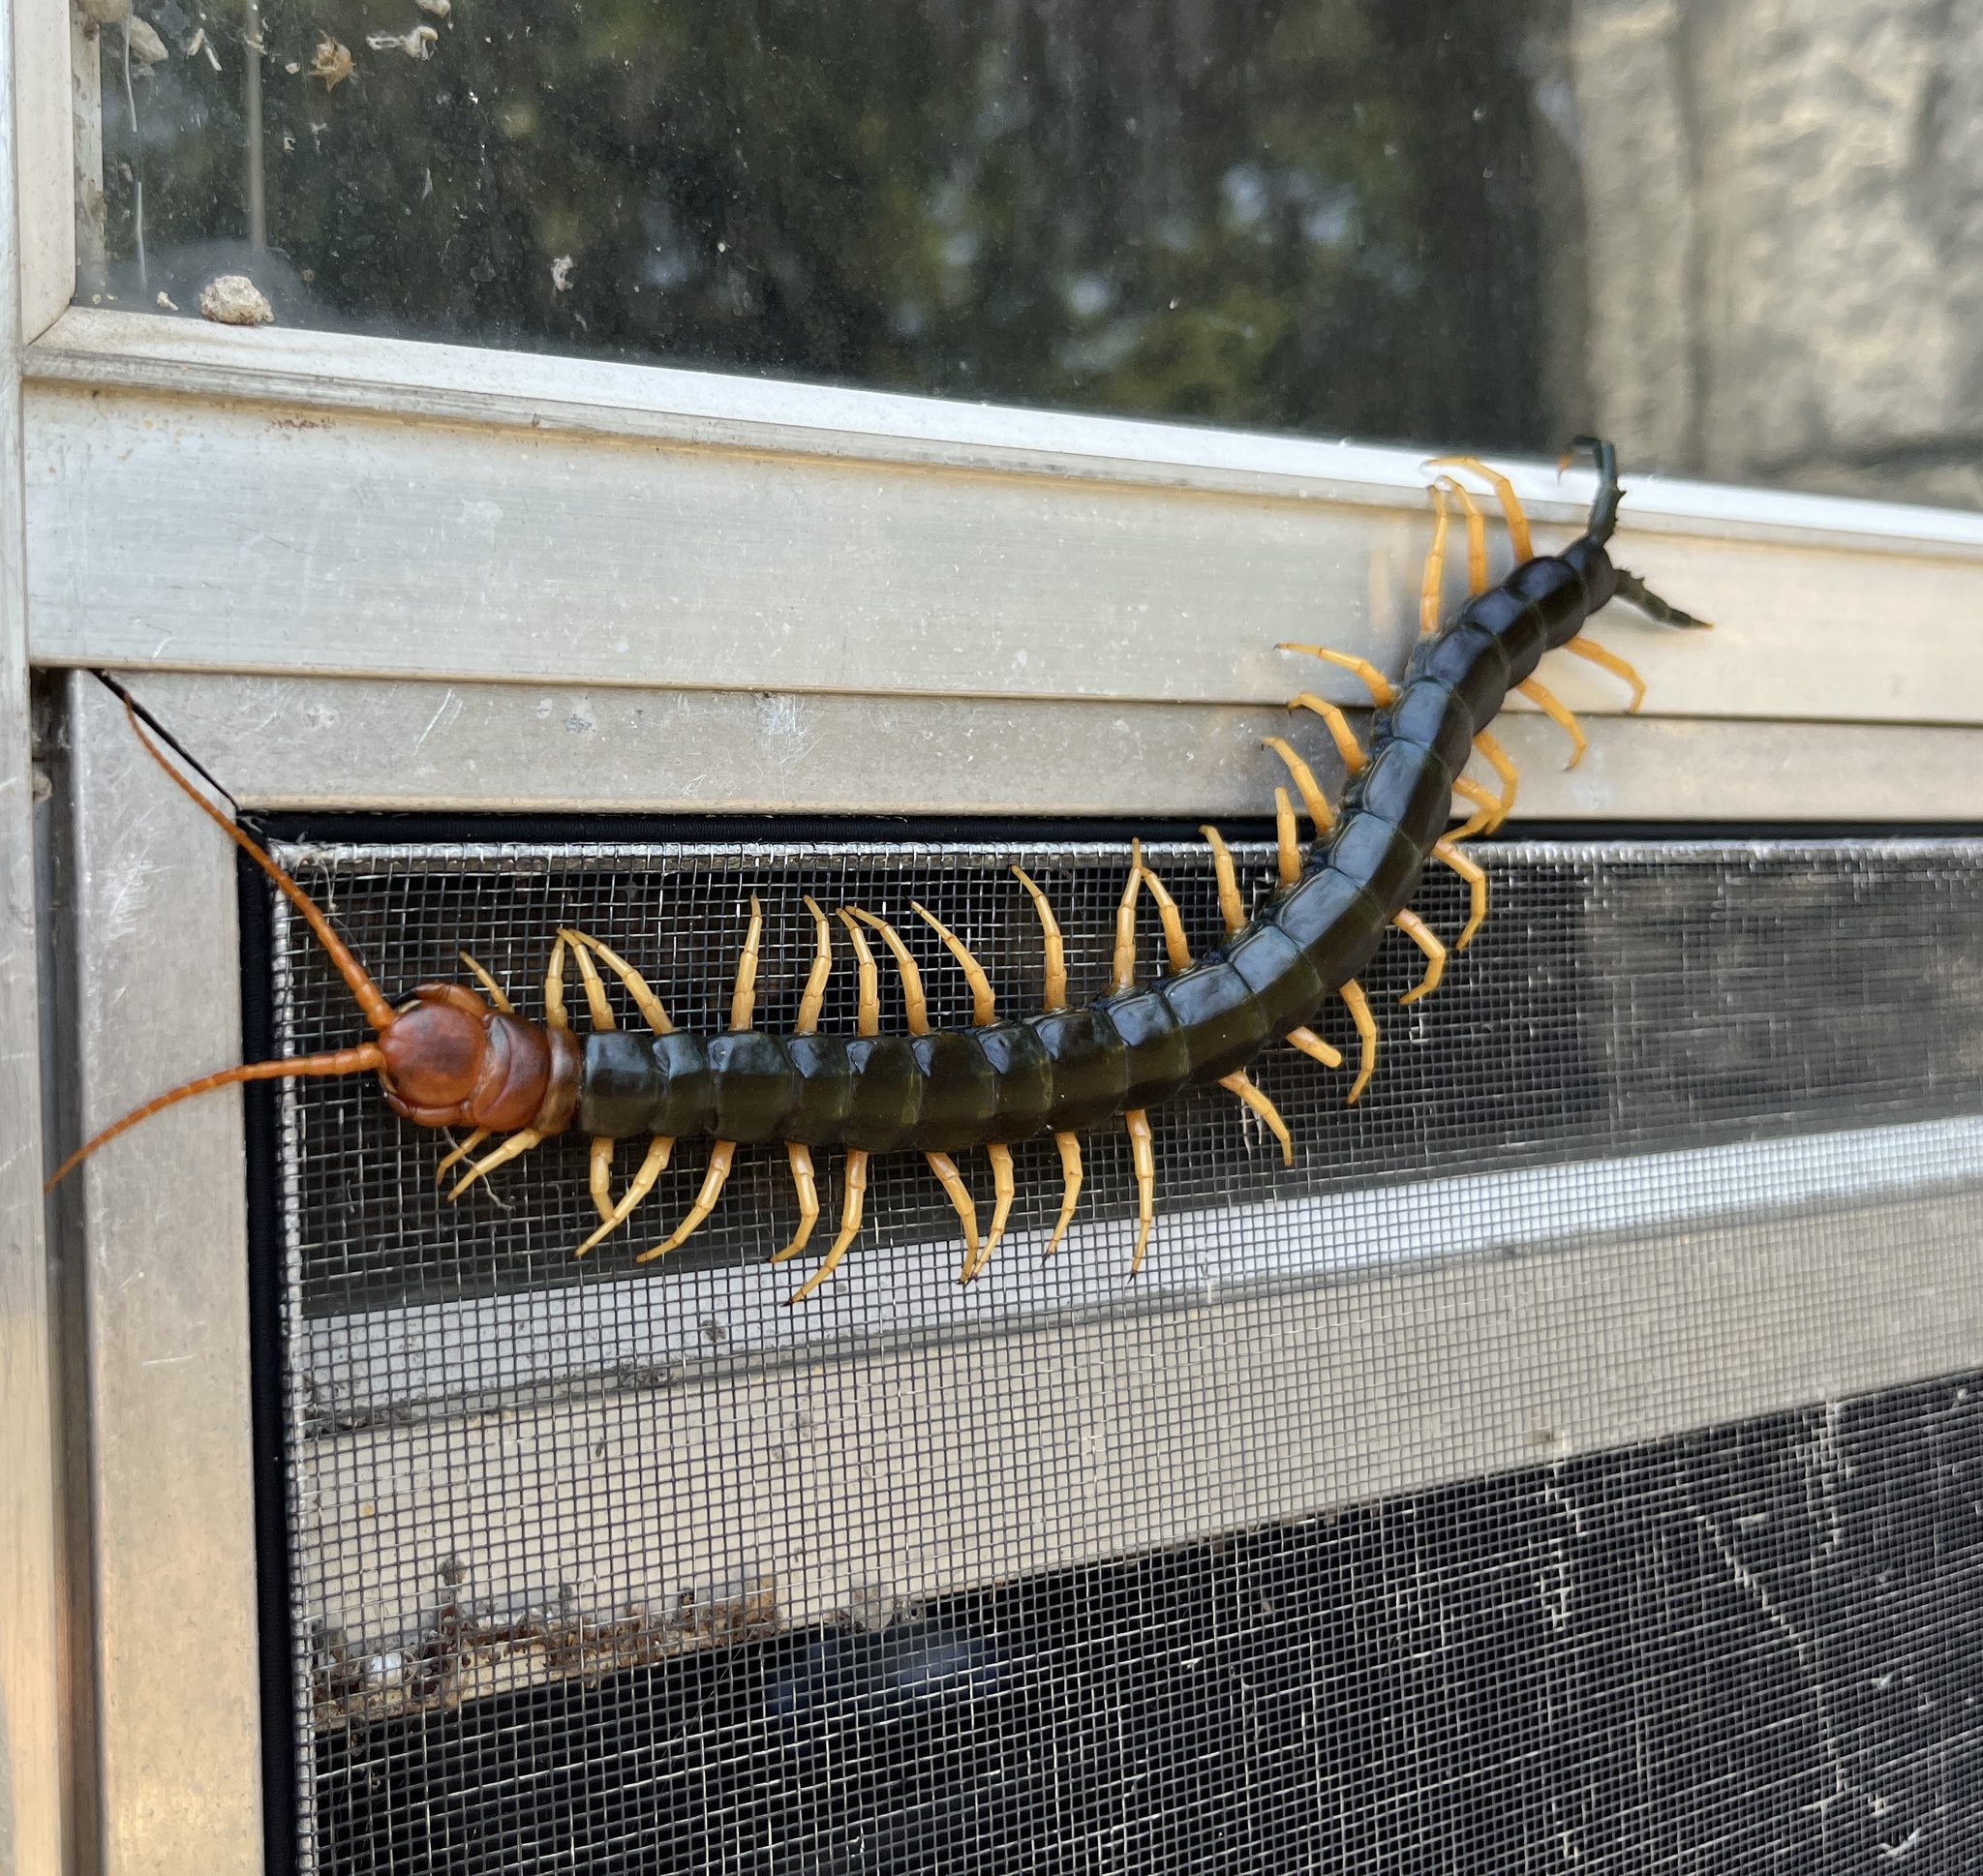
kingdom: Animalia
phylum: Arthropoda
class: Chilopoda
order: Scolopendromorpha
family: Scolopendridae
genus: Scolopendra
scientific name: Scolopendra heros
